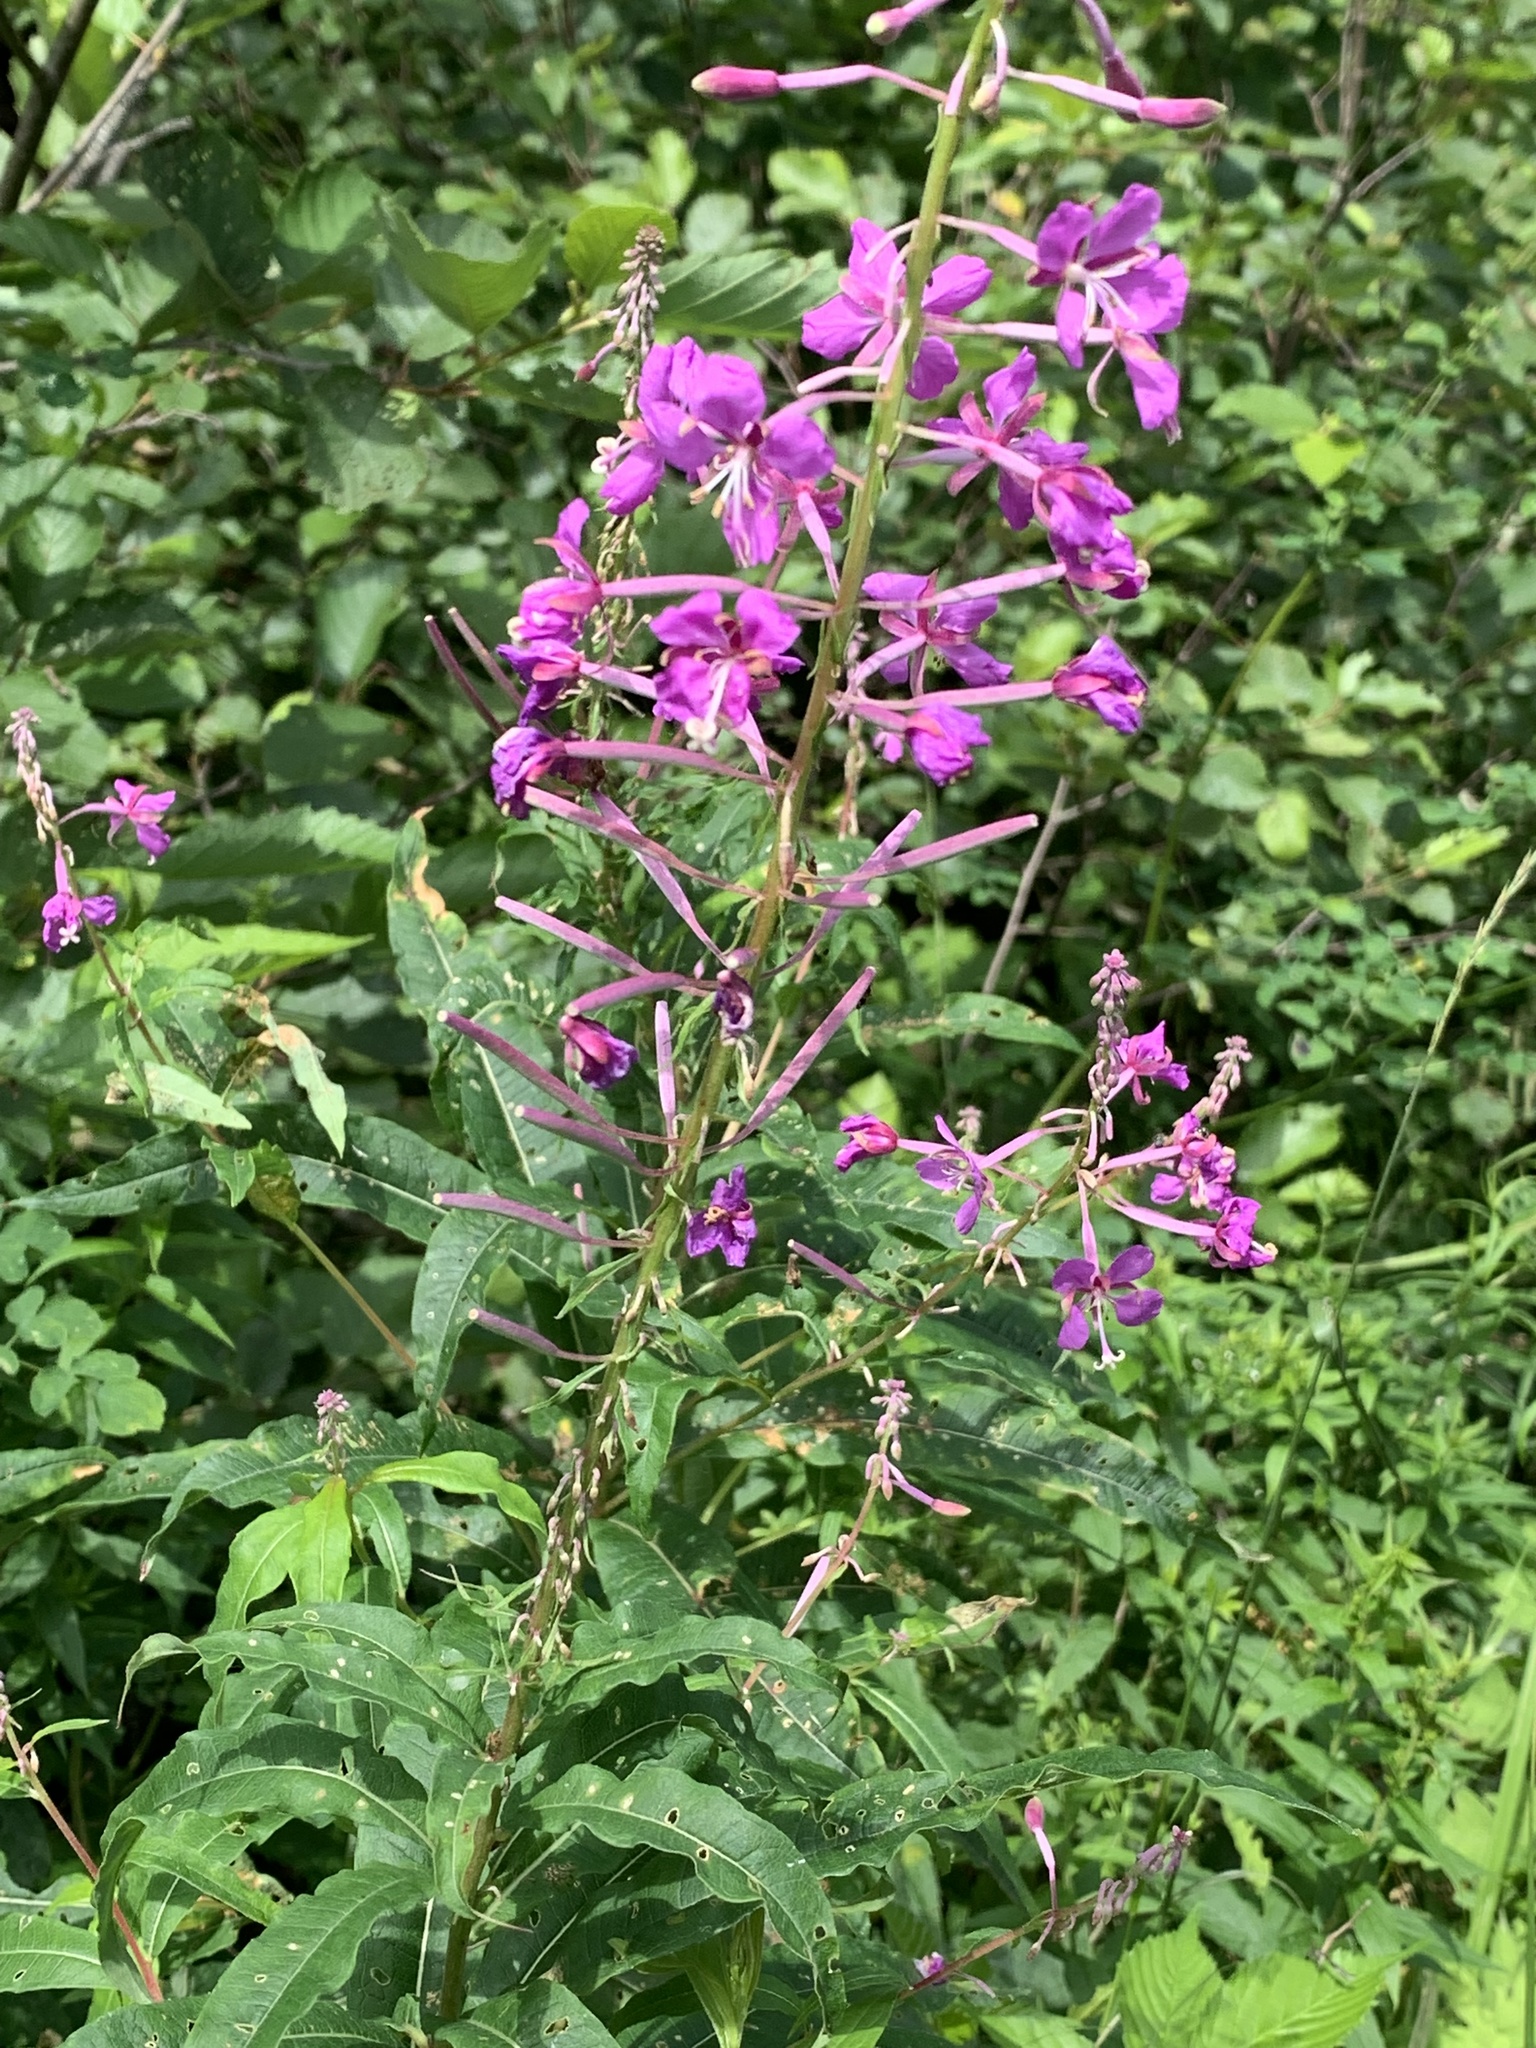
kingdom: Plantae
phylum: Tracheophyta
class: Magnoliopsida
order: Myrtales
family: Onagraceae
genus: Chamaenerion
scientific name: Chamaenerion angustifolium
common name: Fireweed
